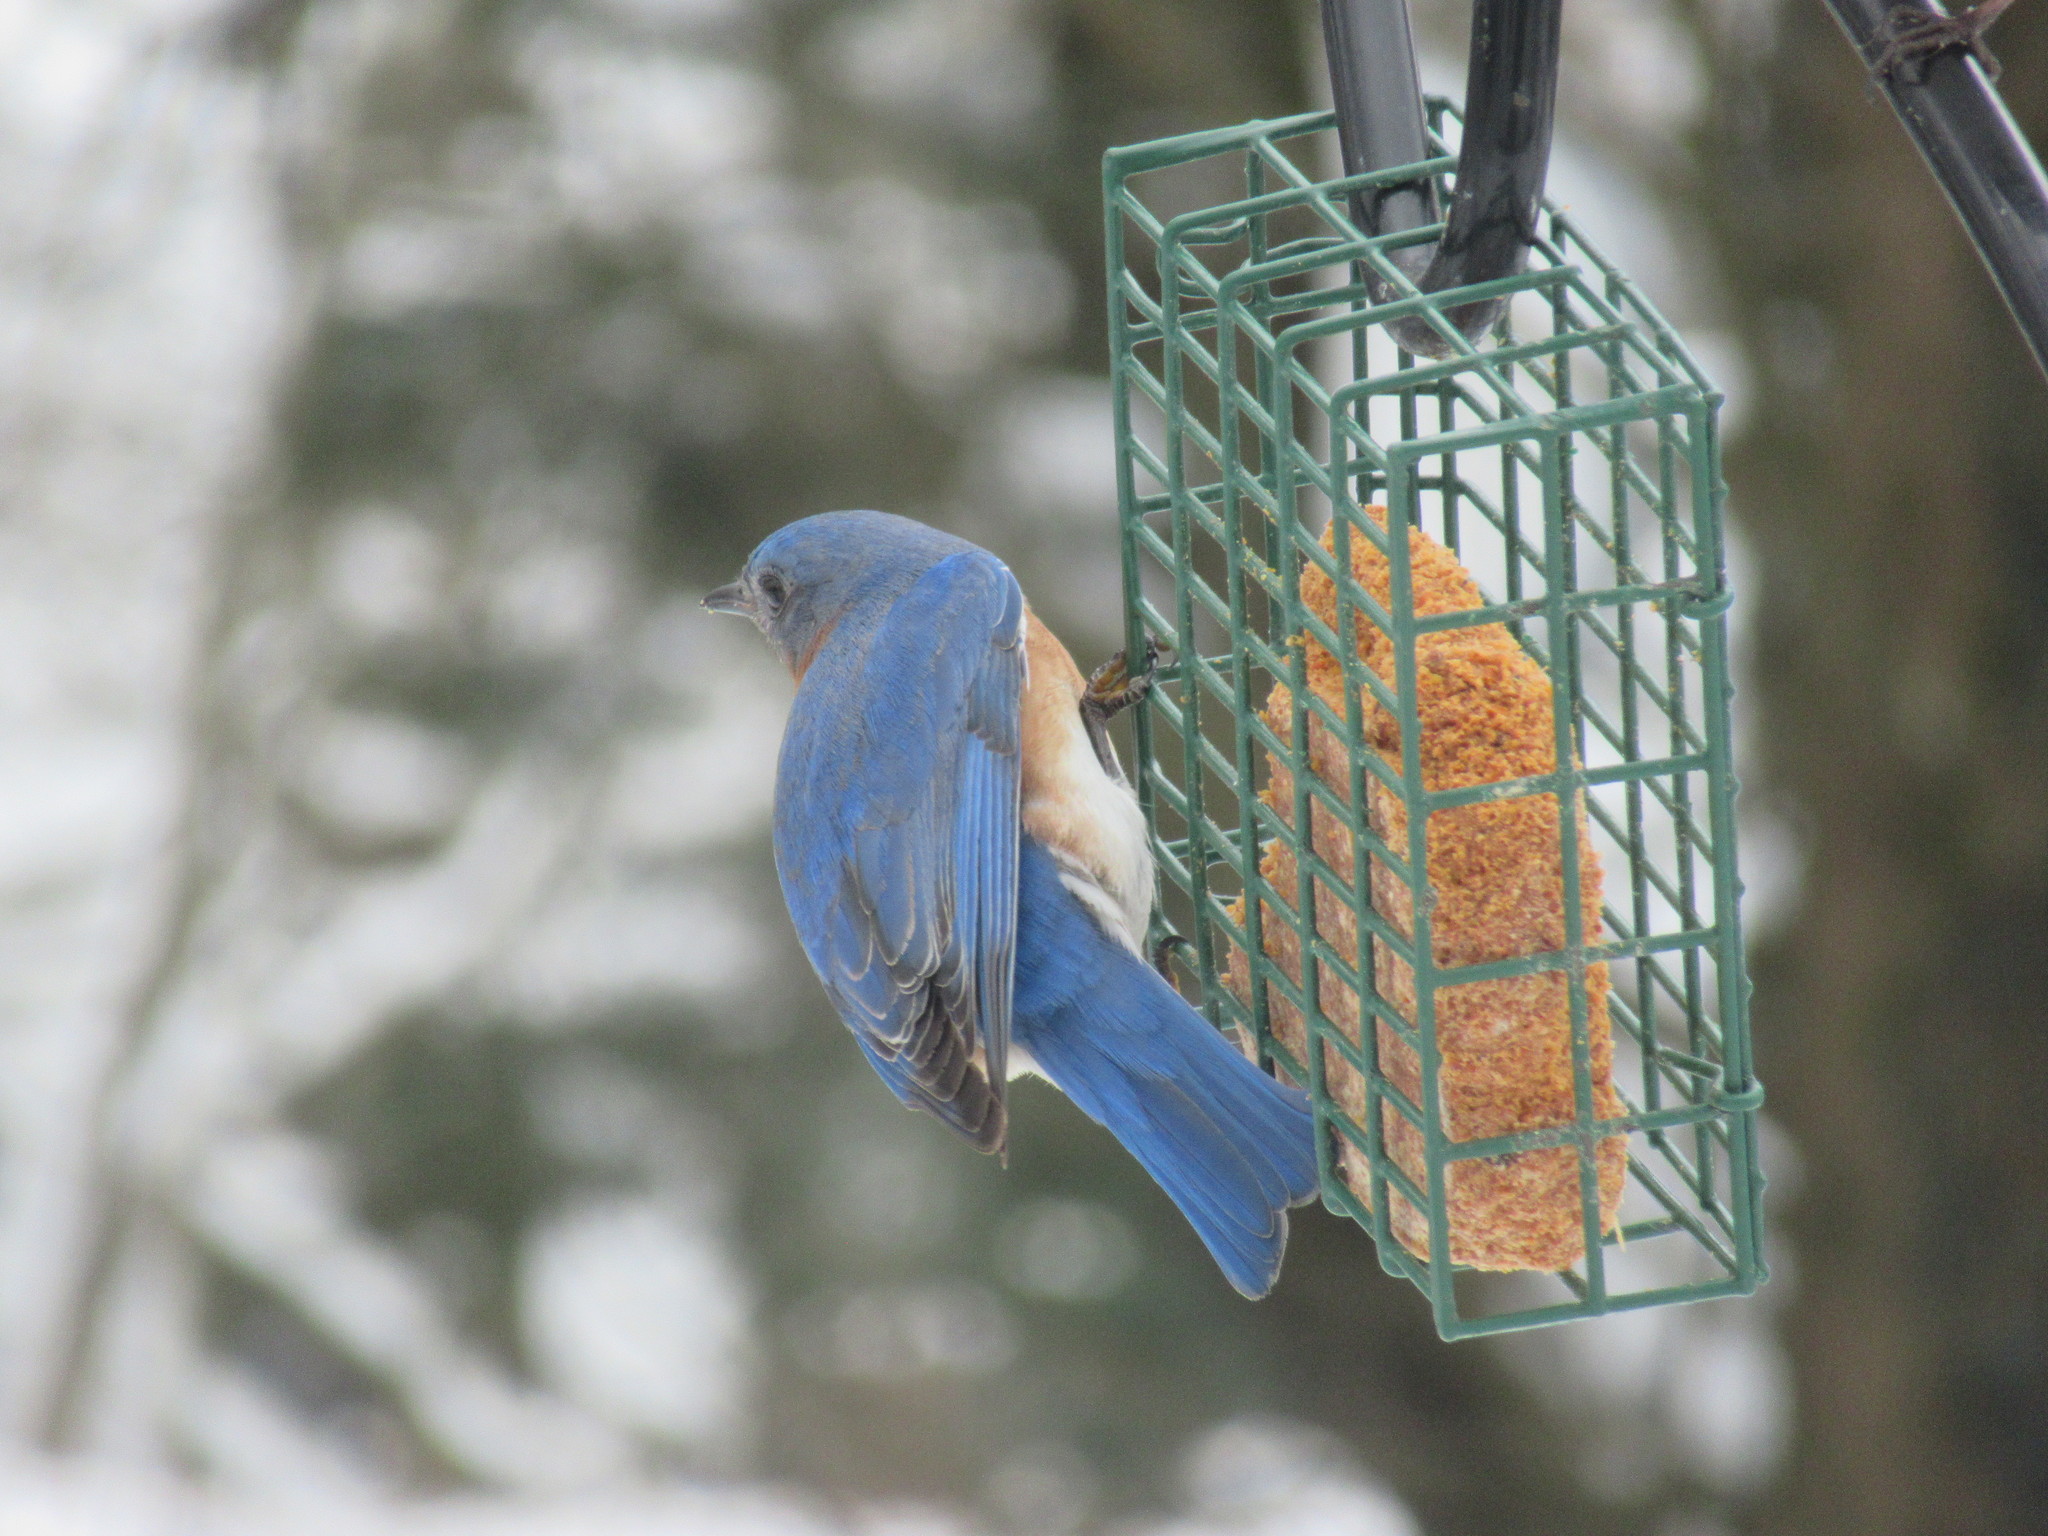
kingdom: Animalia
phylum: Chordata
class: Aves
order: Passeriformes
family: Turdidae
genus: Sialia
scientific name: Sialia sialis
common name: Eastern bluebird
